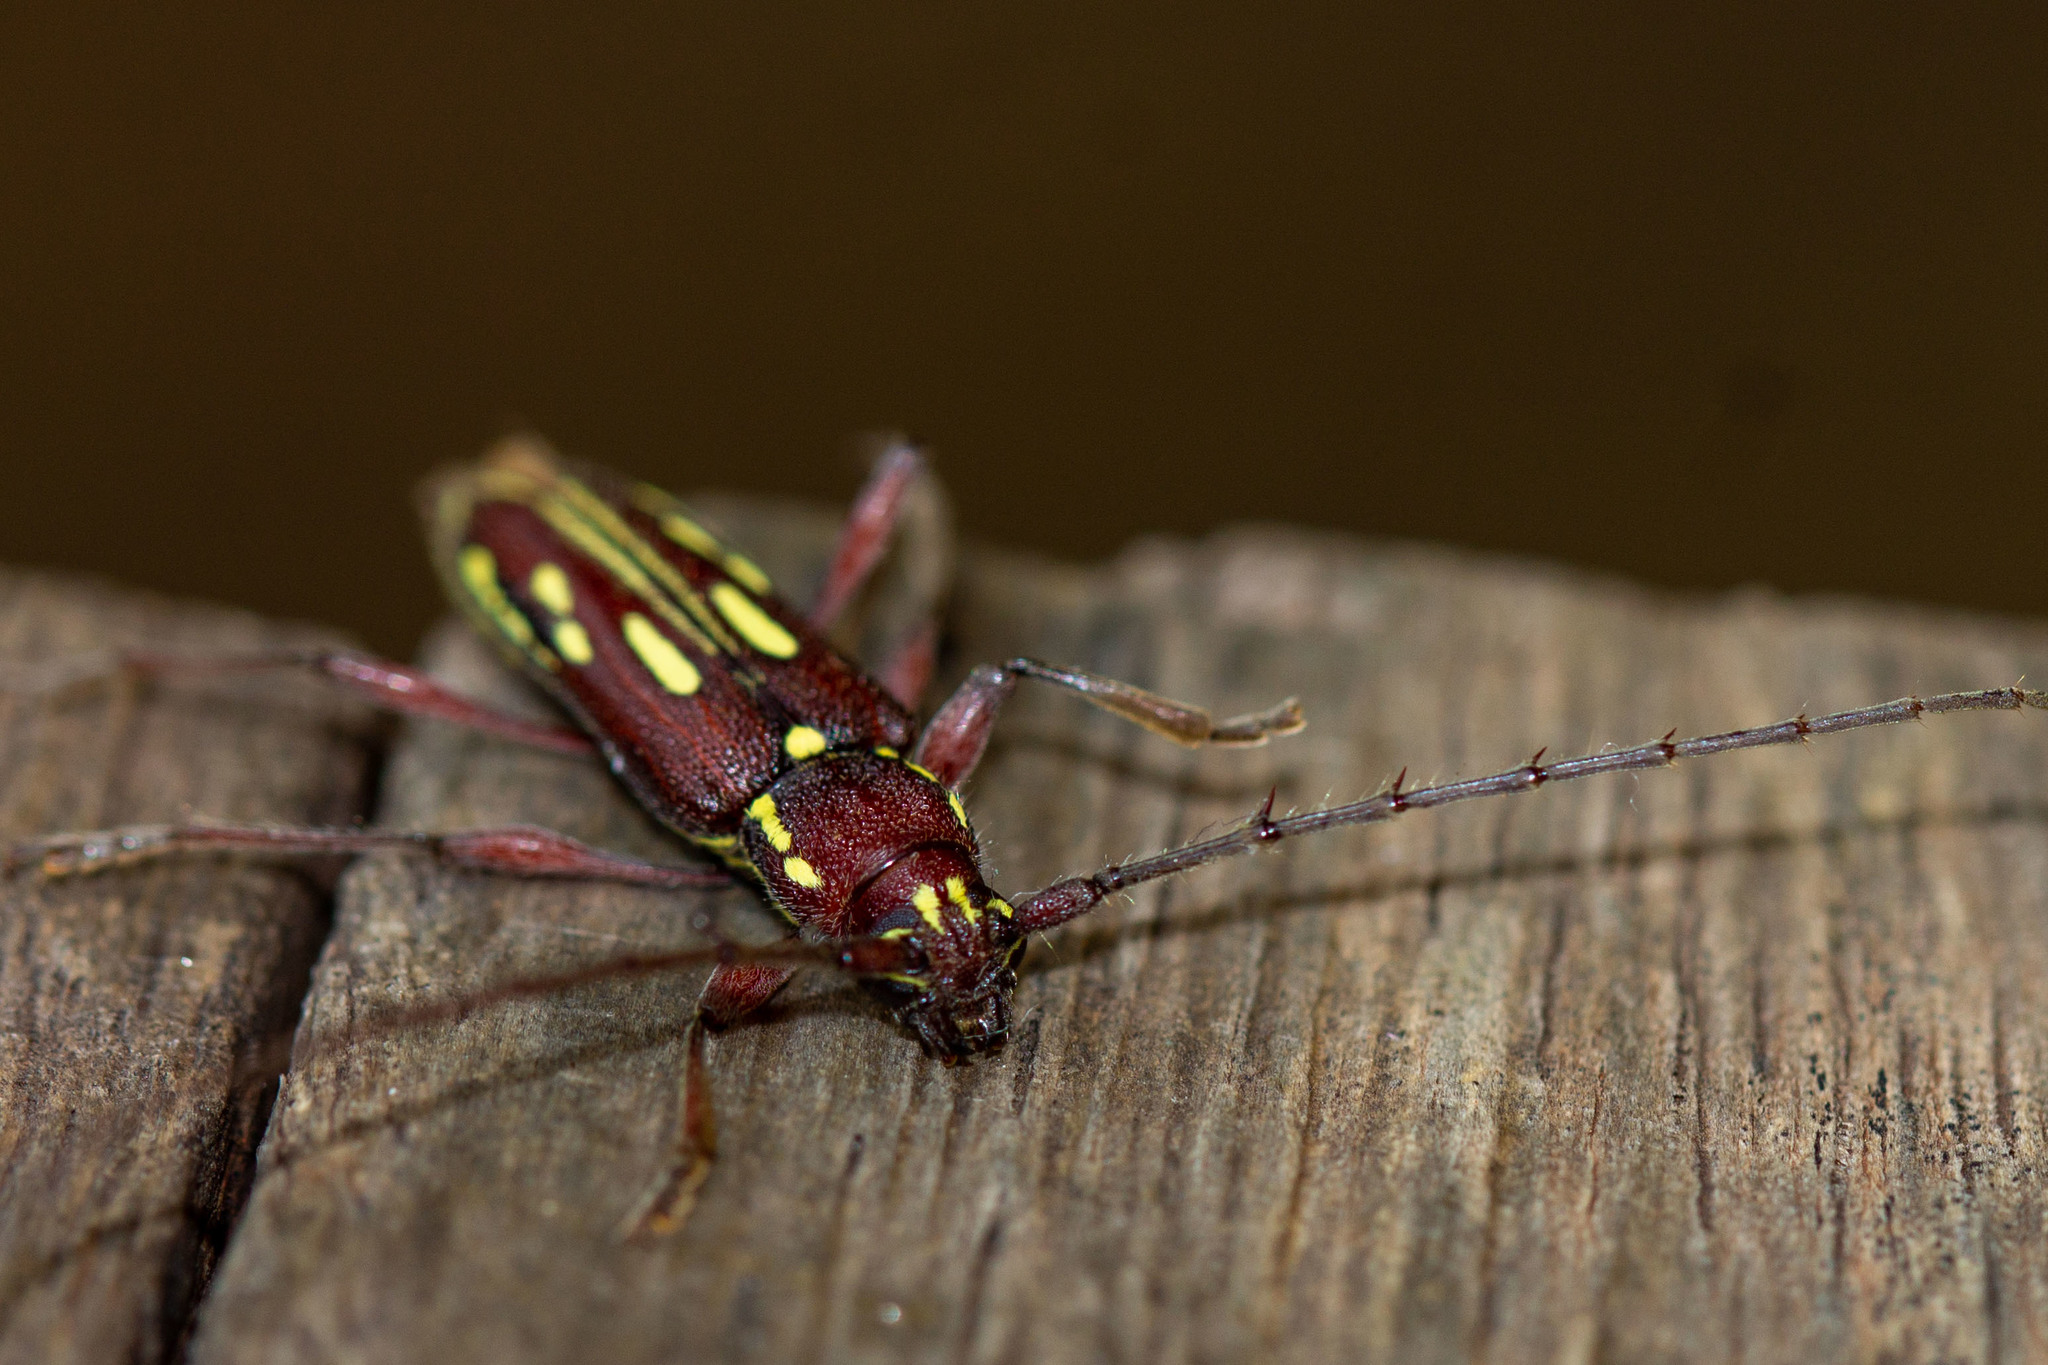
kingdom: Animalia
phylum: Arthropoda
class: Insecta
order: Coleoptera
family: Cerambycidae
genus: Ambonus
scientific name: Ambonus distinctus
